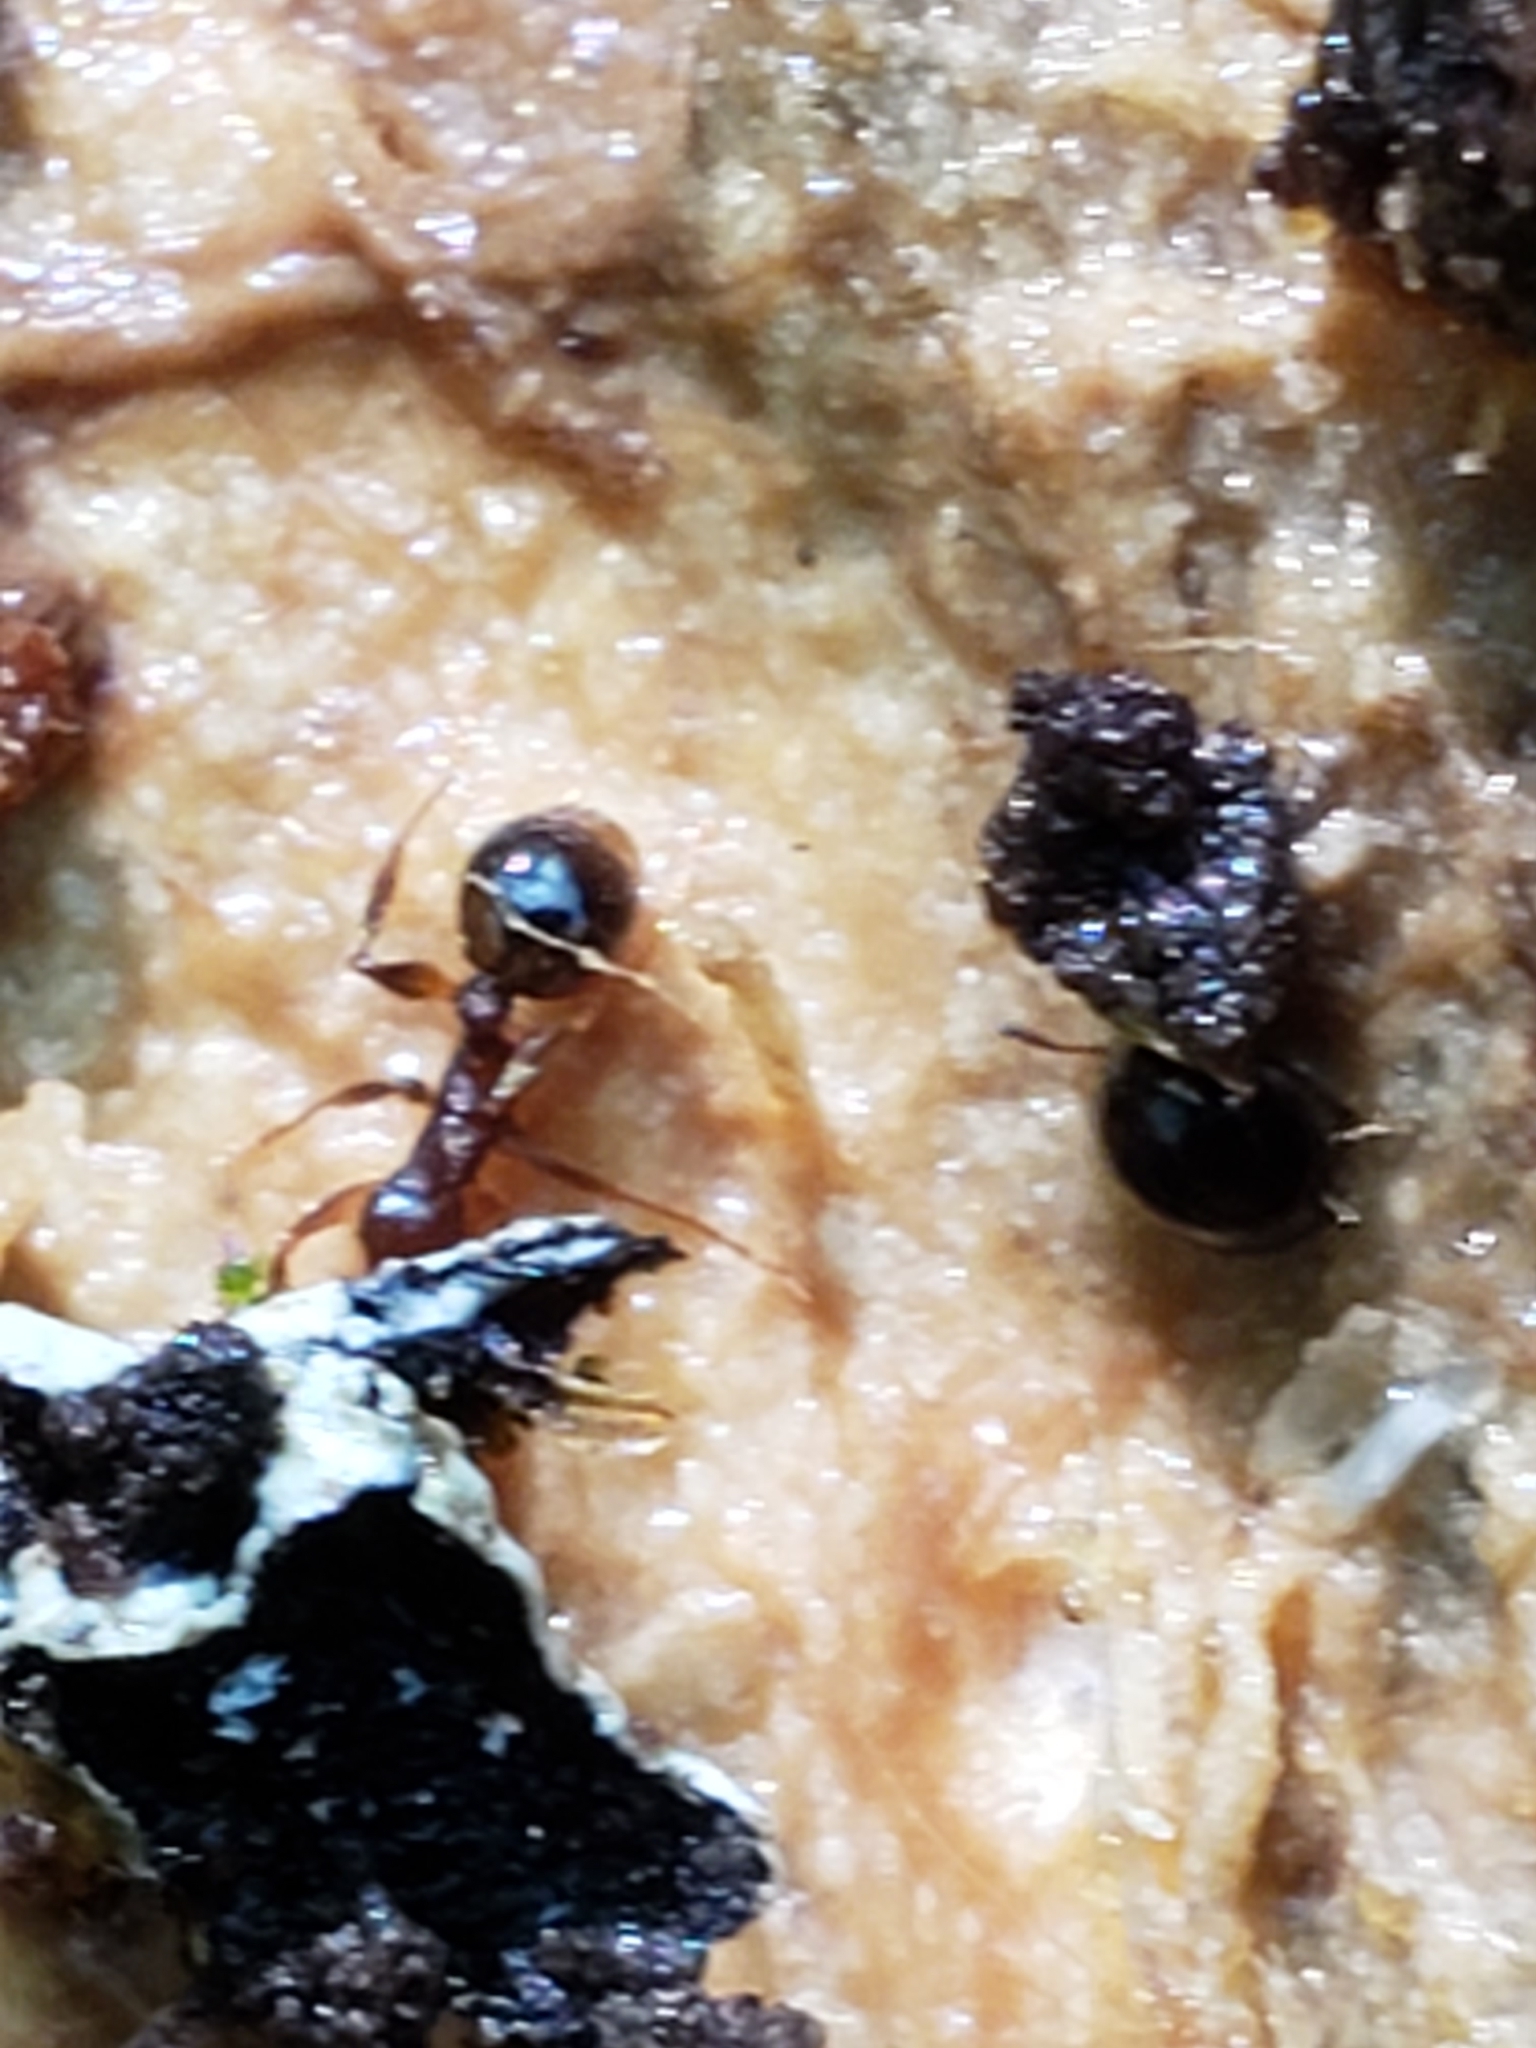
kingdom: Animalia
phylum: Arthropoda
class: Insecta
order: Hymenoptera
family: Formicidae
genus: Aphaenogaster
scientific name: Aphaenogaster rudis
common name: Winnow ant
